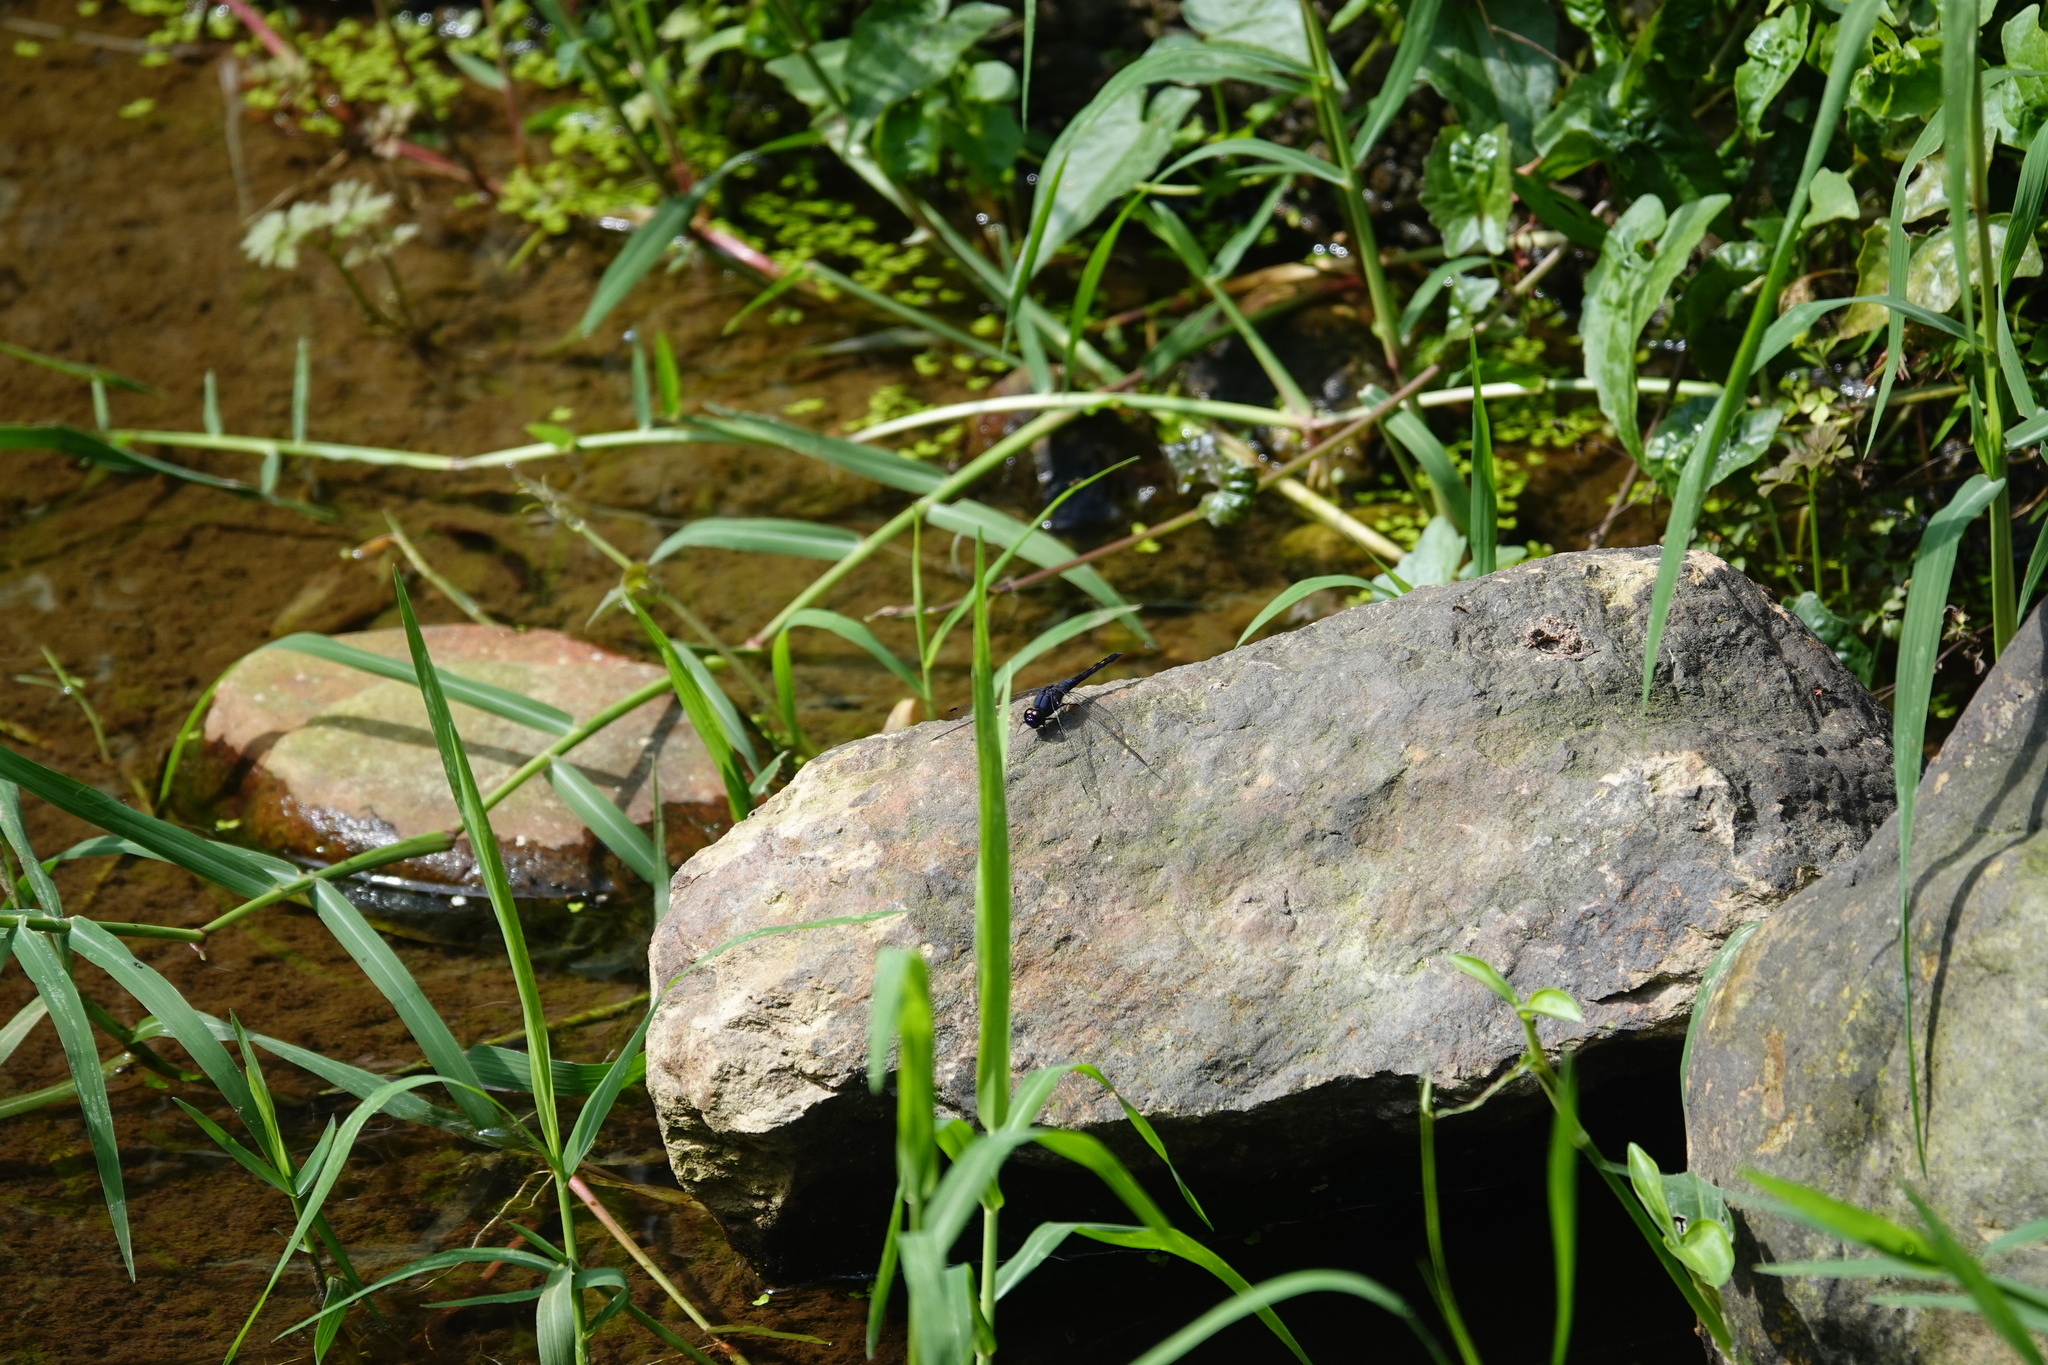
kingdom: Animalia
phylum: Arthropoda
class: Insecta
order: Odonata
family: Libellulidae
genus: Trithemis
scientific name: Trithemis festiva
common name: Indigo dropwing
